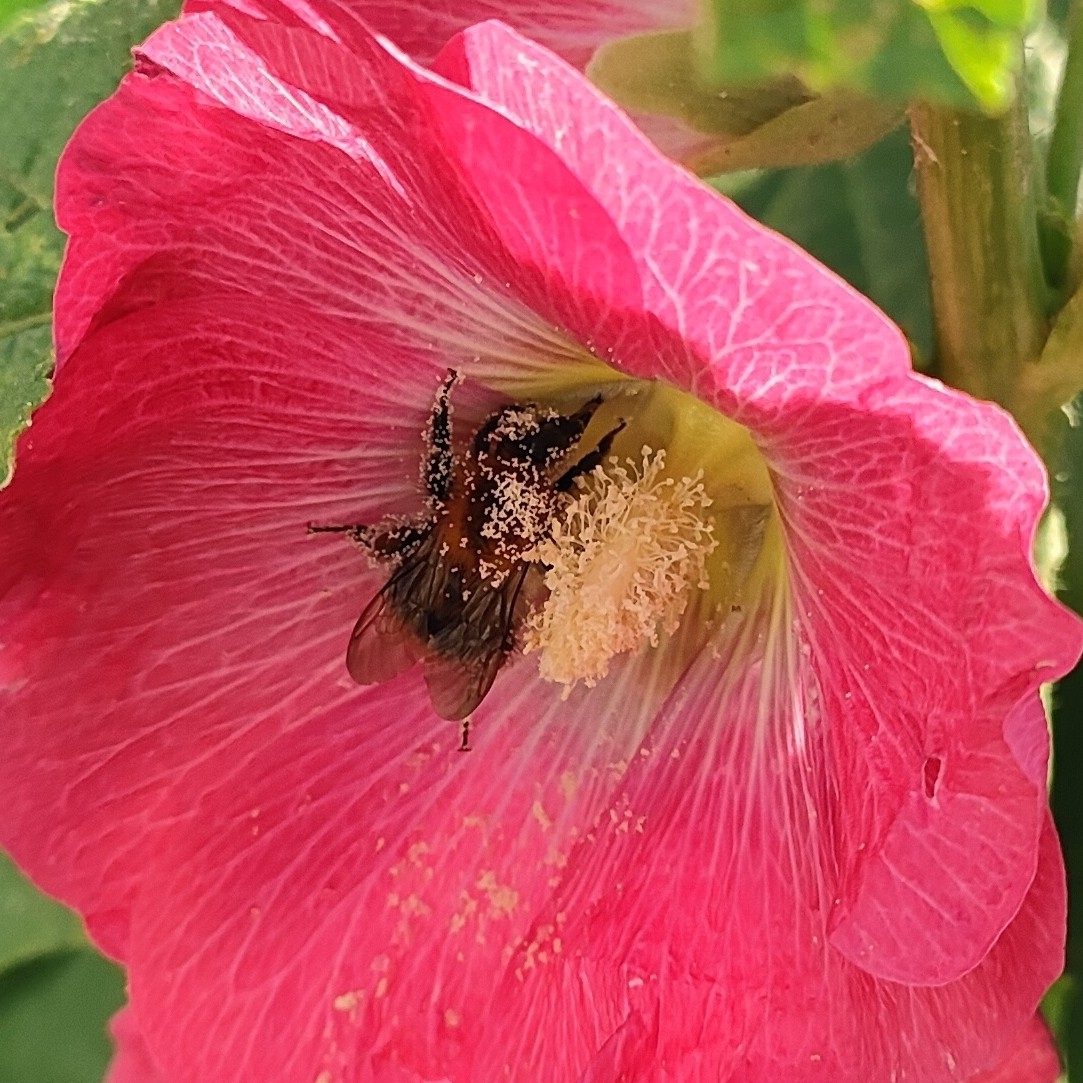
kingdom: Animalia
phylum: Arthropoda
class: Insecta
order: Hymenoptera
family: Apidae
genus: Bombus
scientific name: Bombus pascuorum
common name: Common carder bee
